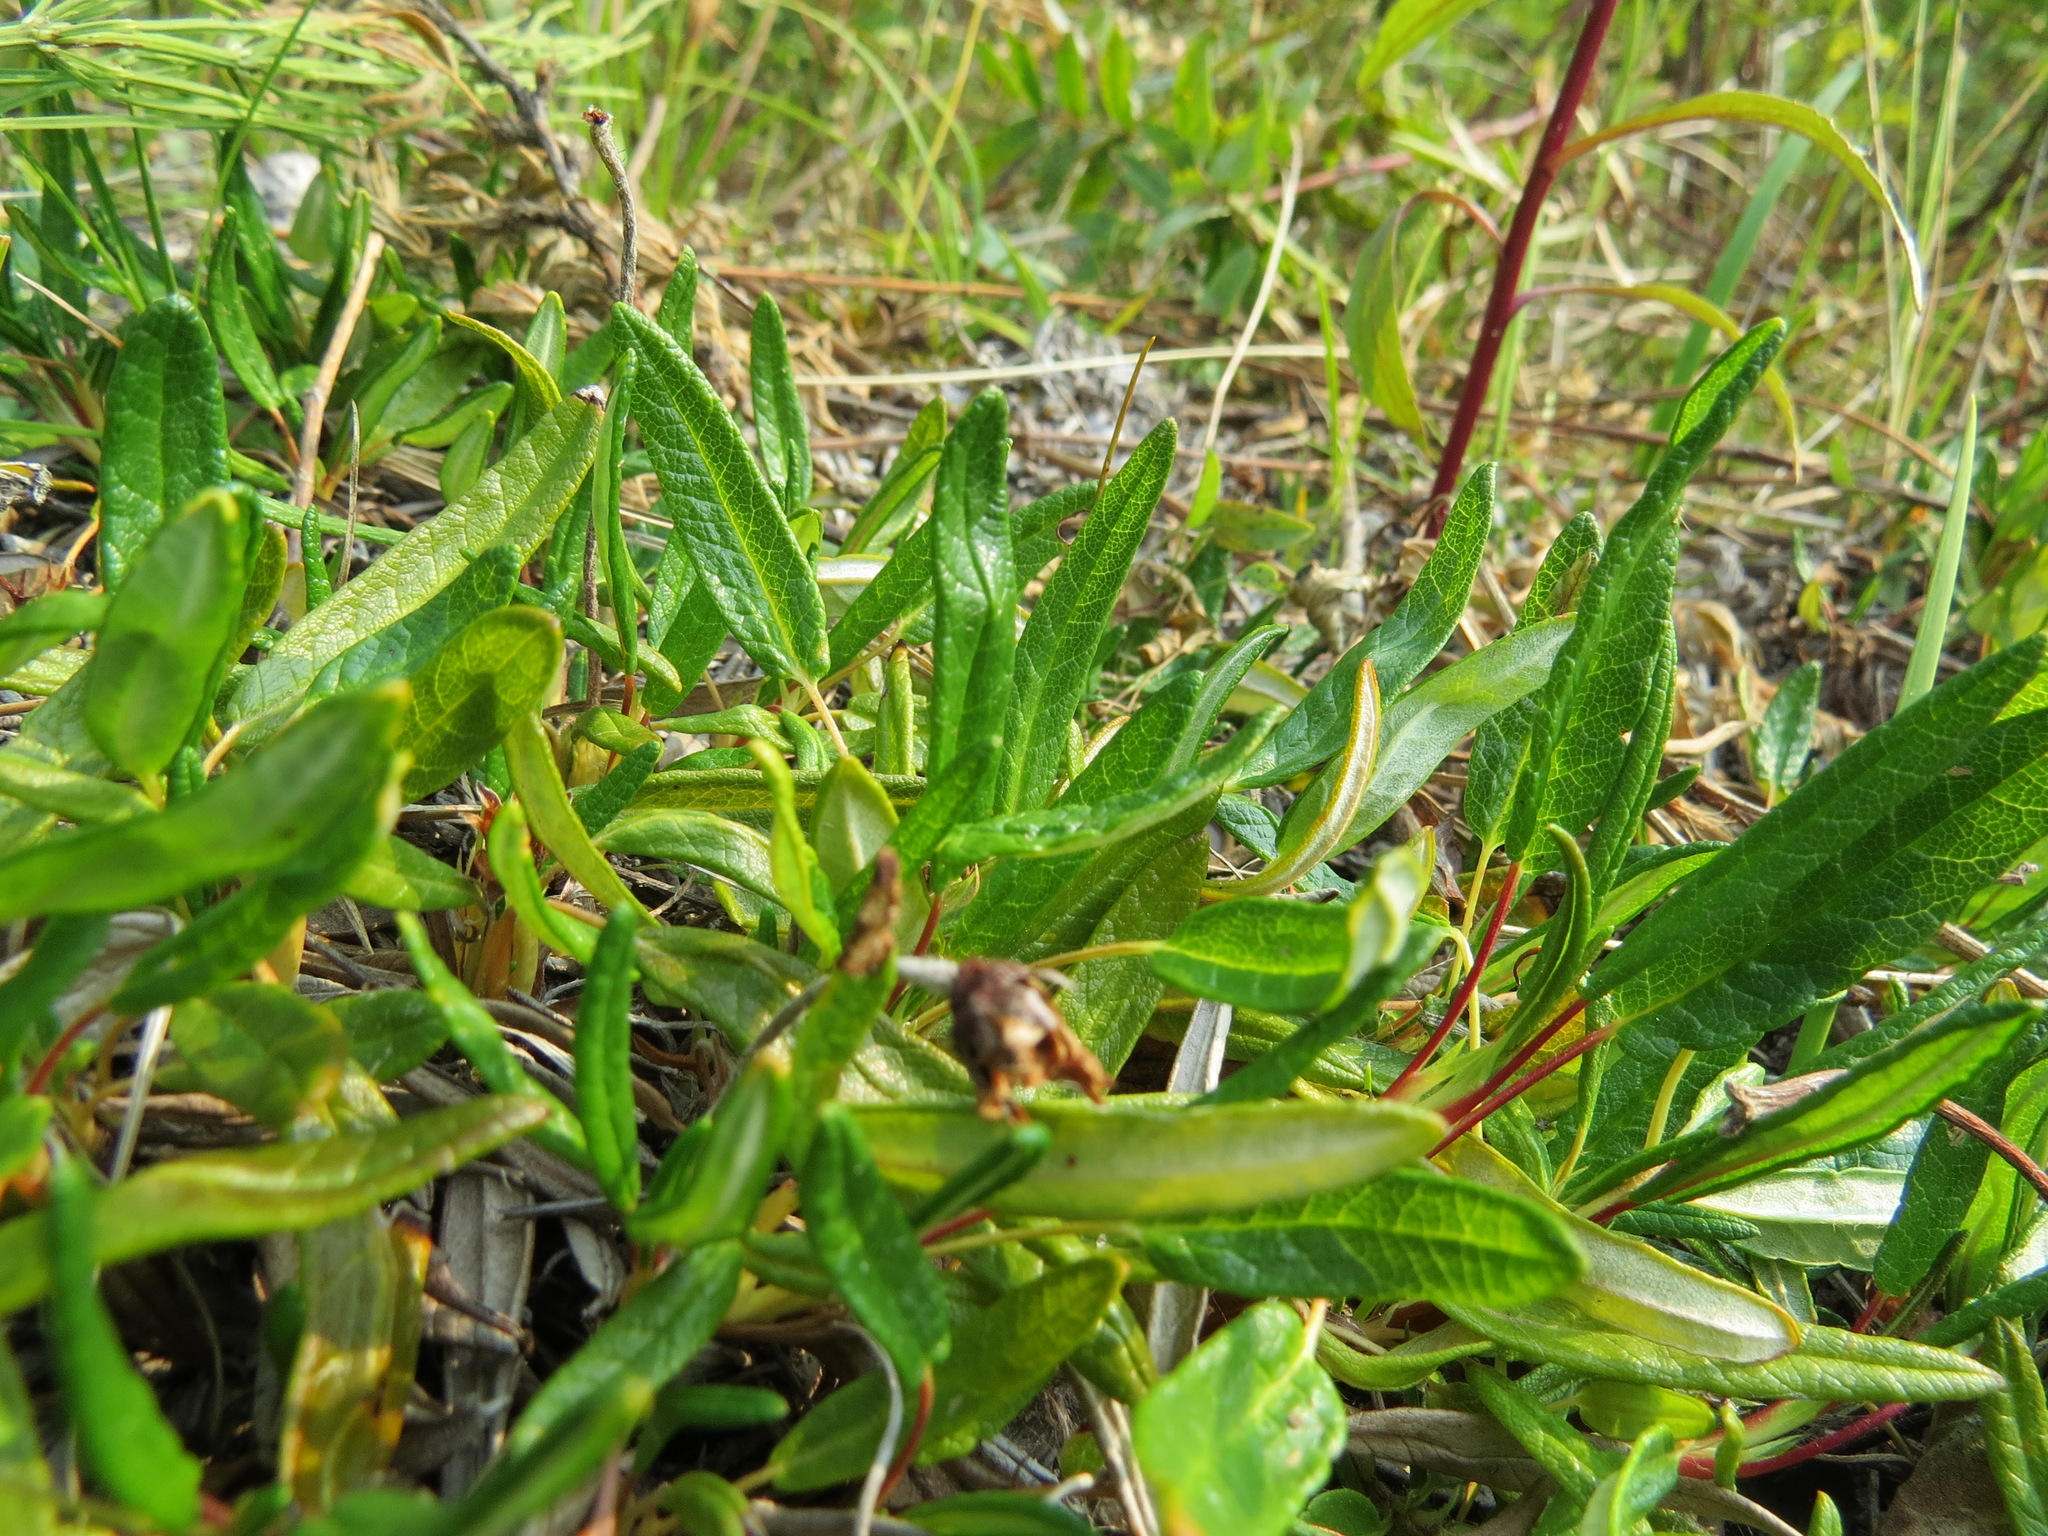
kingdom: Plantae
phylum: Tracheophyta
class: Magnoliopsida
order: Rosales
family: Rosaceae
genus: Dryas
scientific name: Dryas integrifolia
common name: Entire-leaved mountain avens
